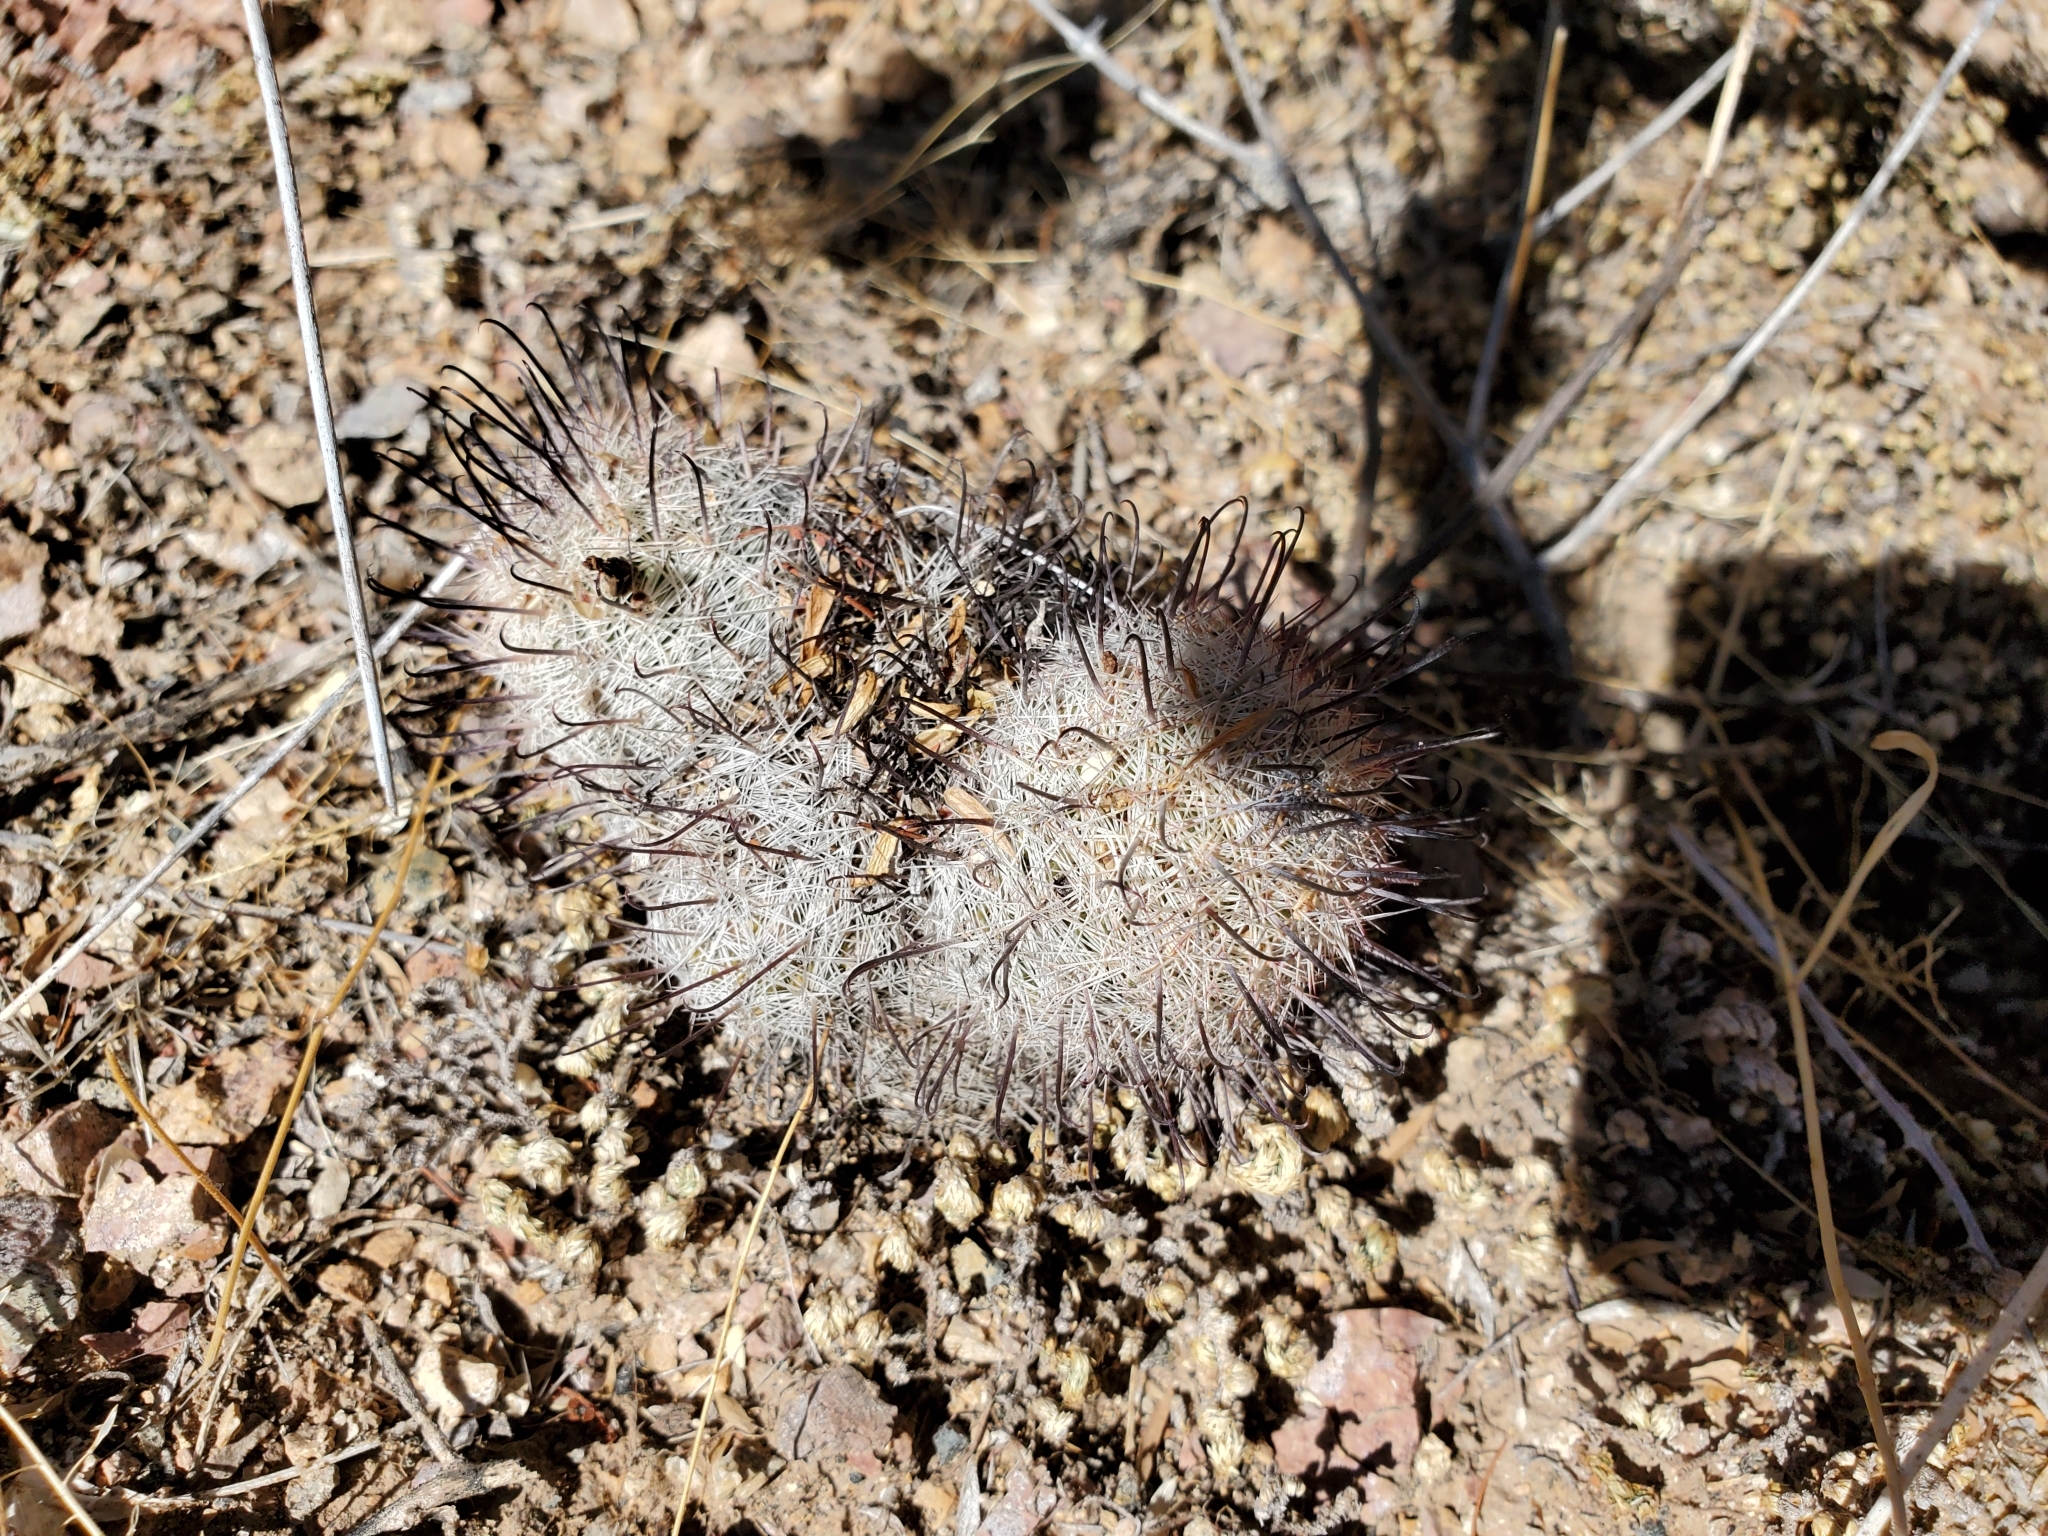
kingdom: Plantae
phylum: Tracheophyta
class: Magnoliopsida
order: Caryophyllales
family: Cactaceae
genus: Cochemiea
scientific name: Cochemiea grahamii
